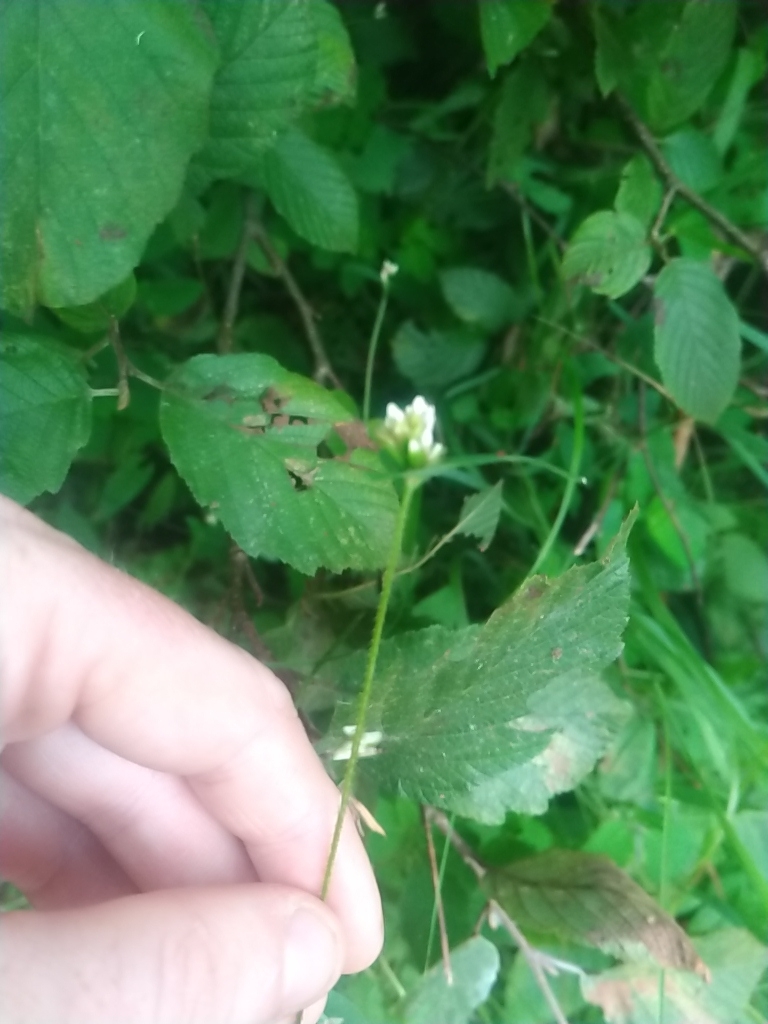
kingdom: Plantae
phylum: Tracheophyta
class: Magnoliopsida
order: Caryophyllales
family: Polygonaceae
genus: Persicaria
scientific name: Persicaria sagittata
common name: American tearthumb
